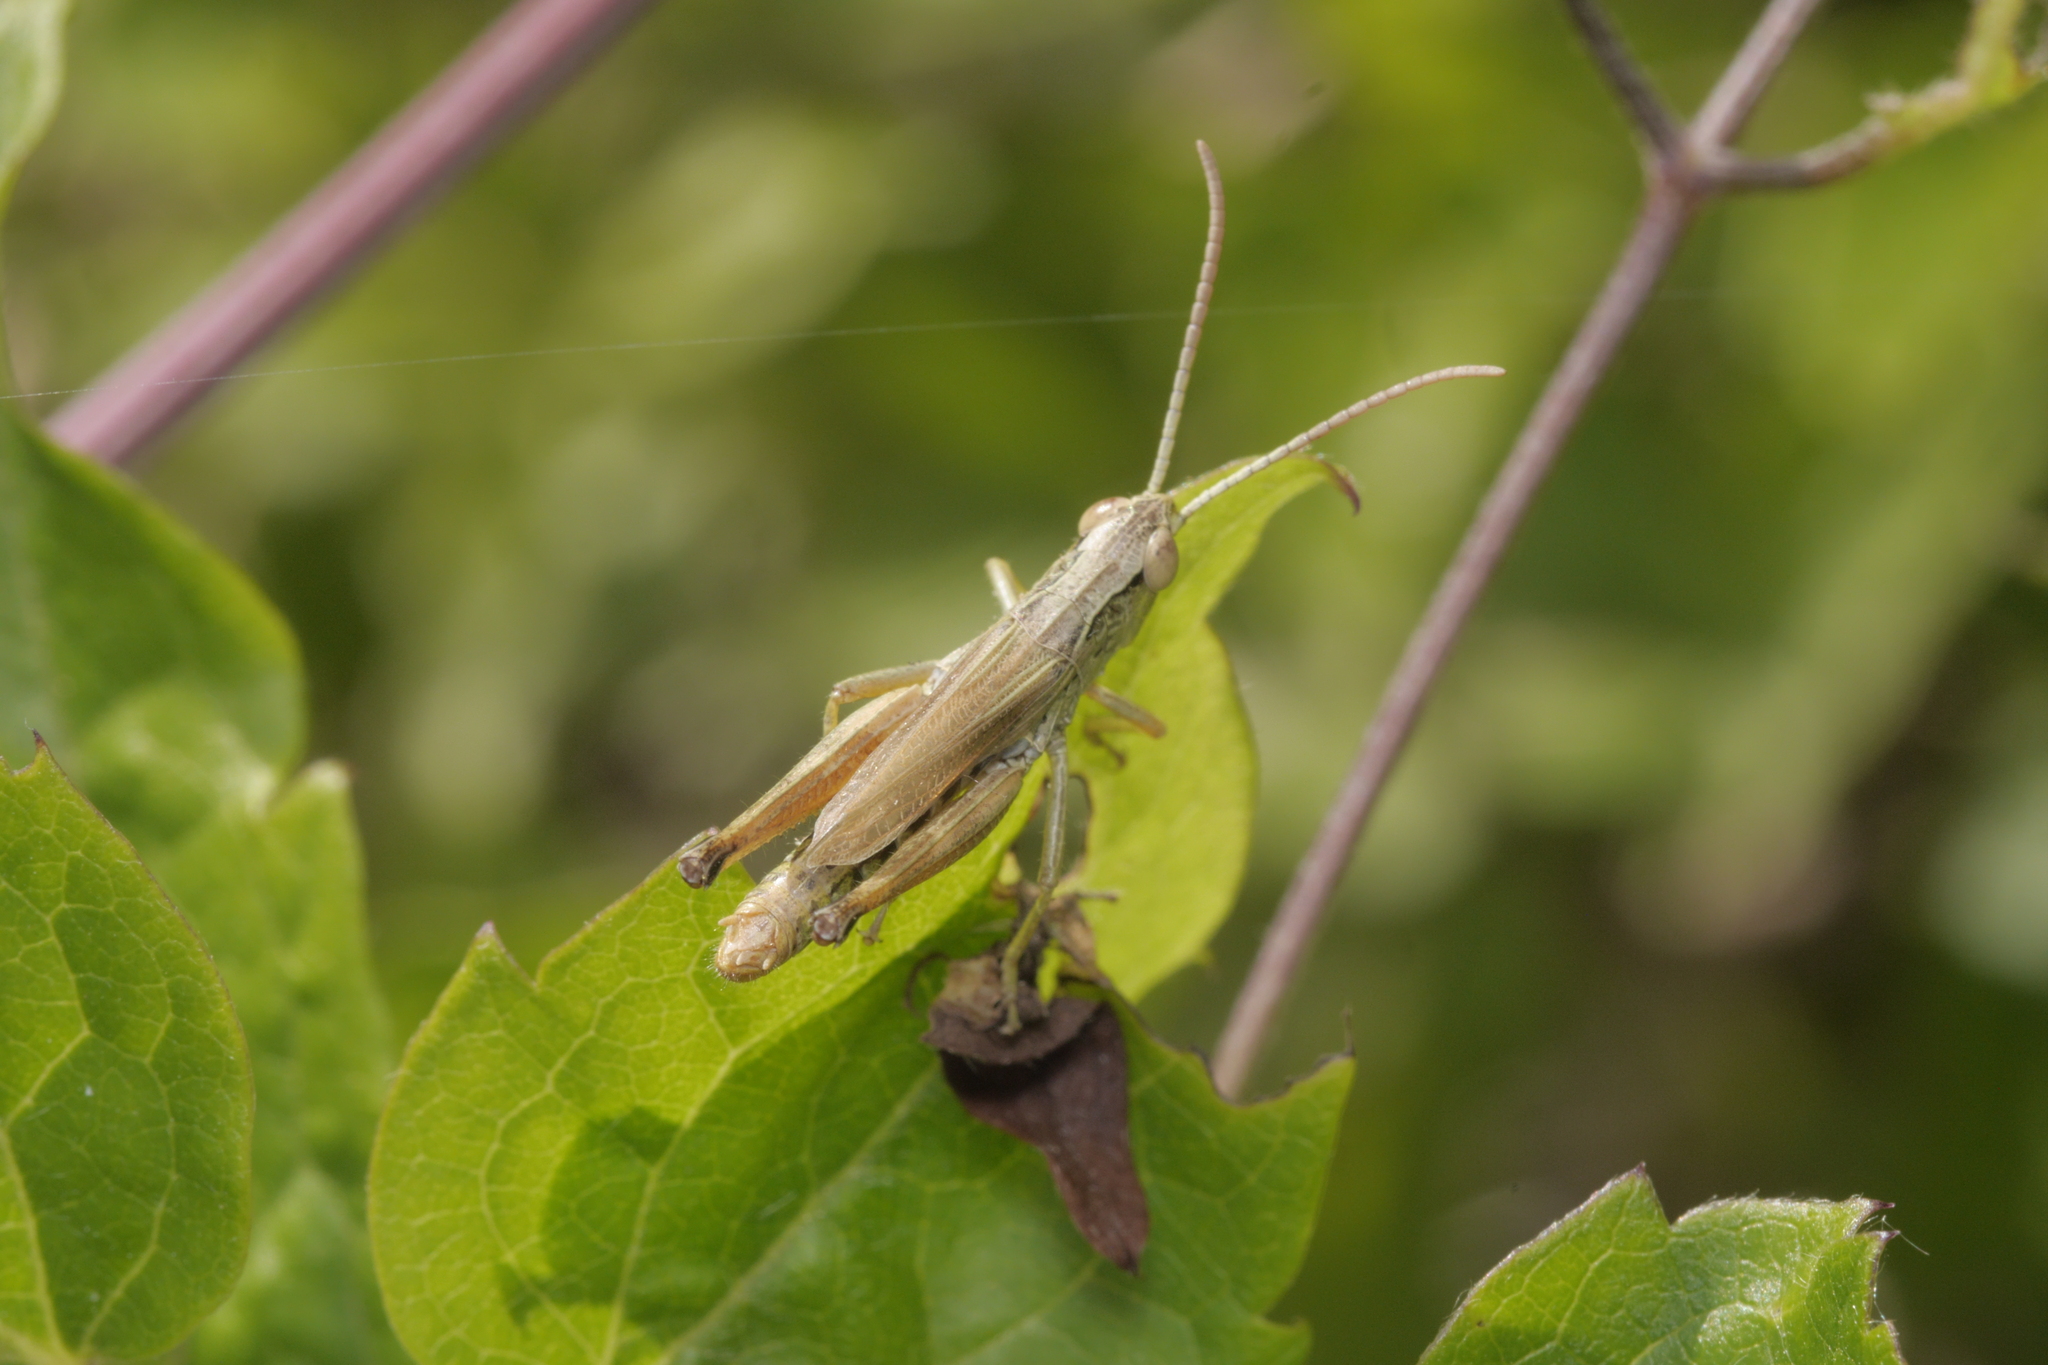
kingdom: Animalia
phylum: Arthropoda
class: Insecta
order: Orthoptera
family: Acrididae
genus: Pseudochorthippus
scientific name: Pseudochorthippus parallelus
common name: Meadow grasshopper
